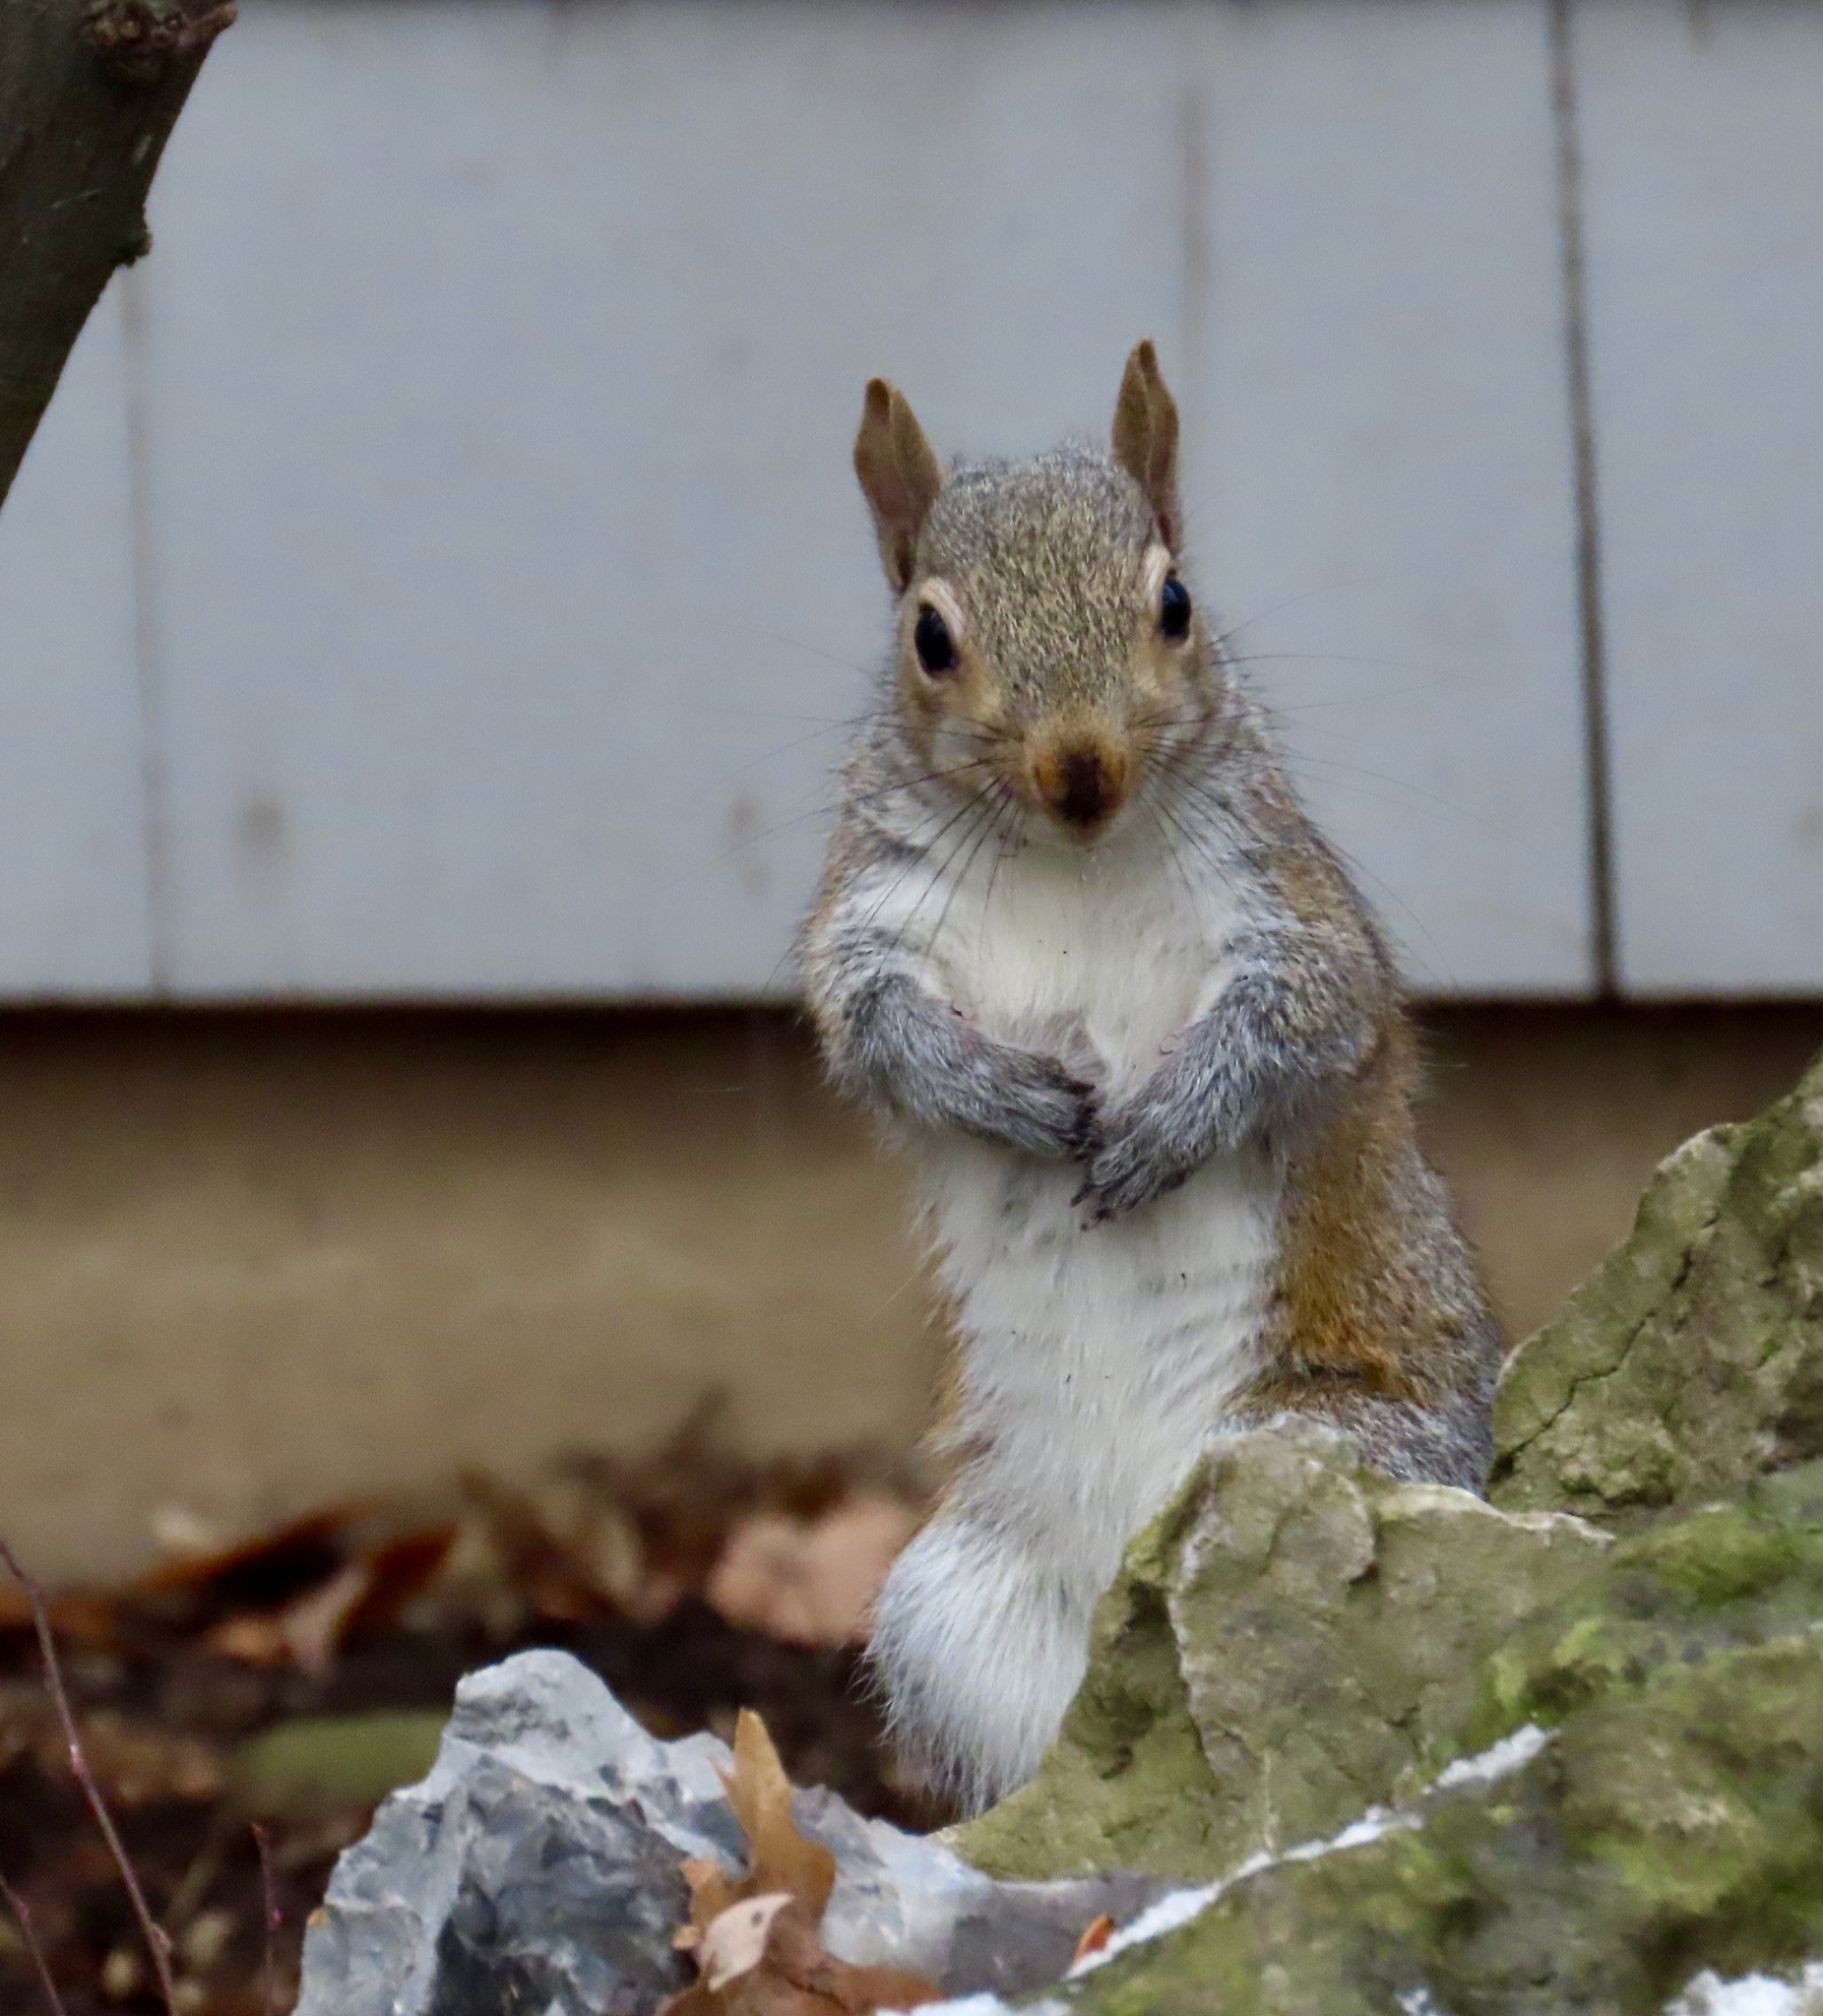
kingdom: Animalia
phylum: Chordata
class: Mammalia
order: Rodentia
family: Sciuridae
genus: Sciurus
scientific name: Sciurus carolinensis
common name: Eastern gray squirrel
